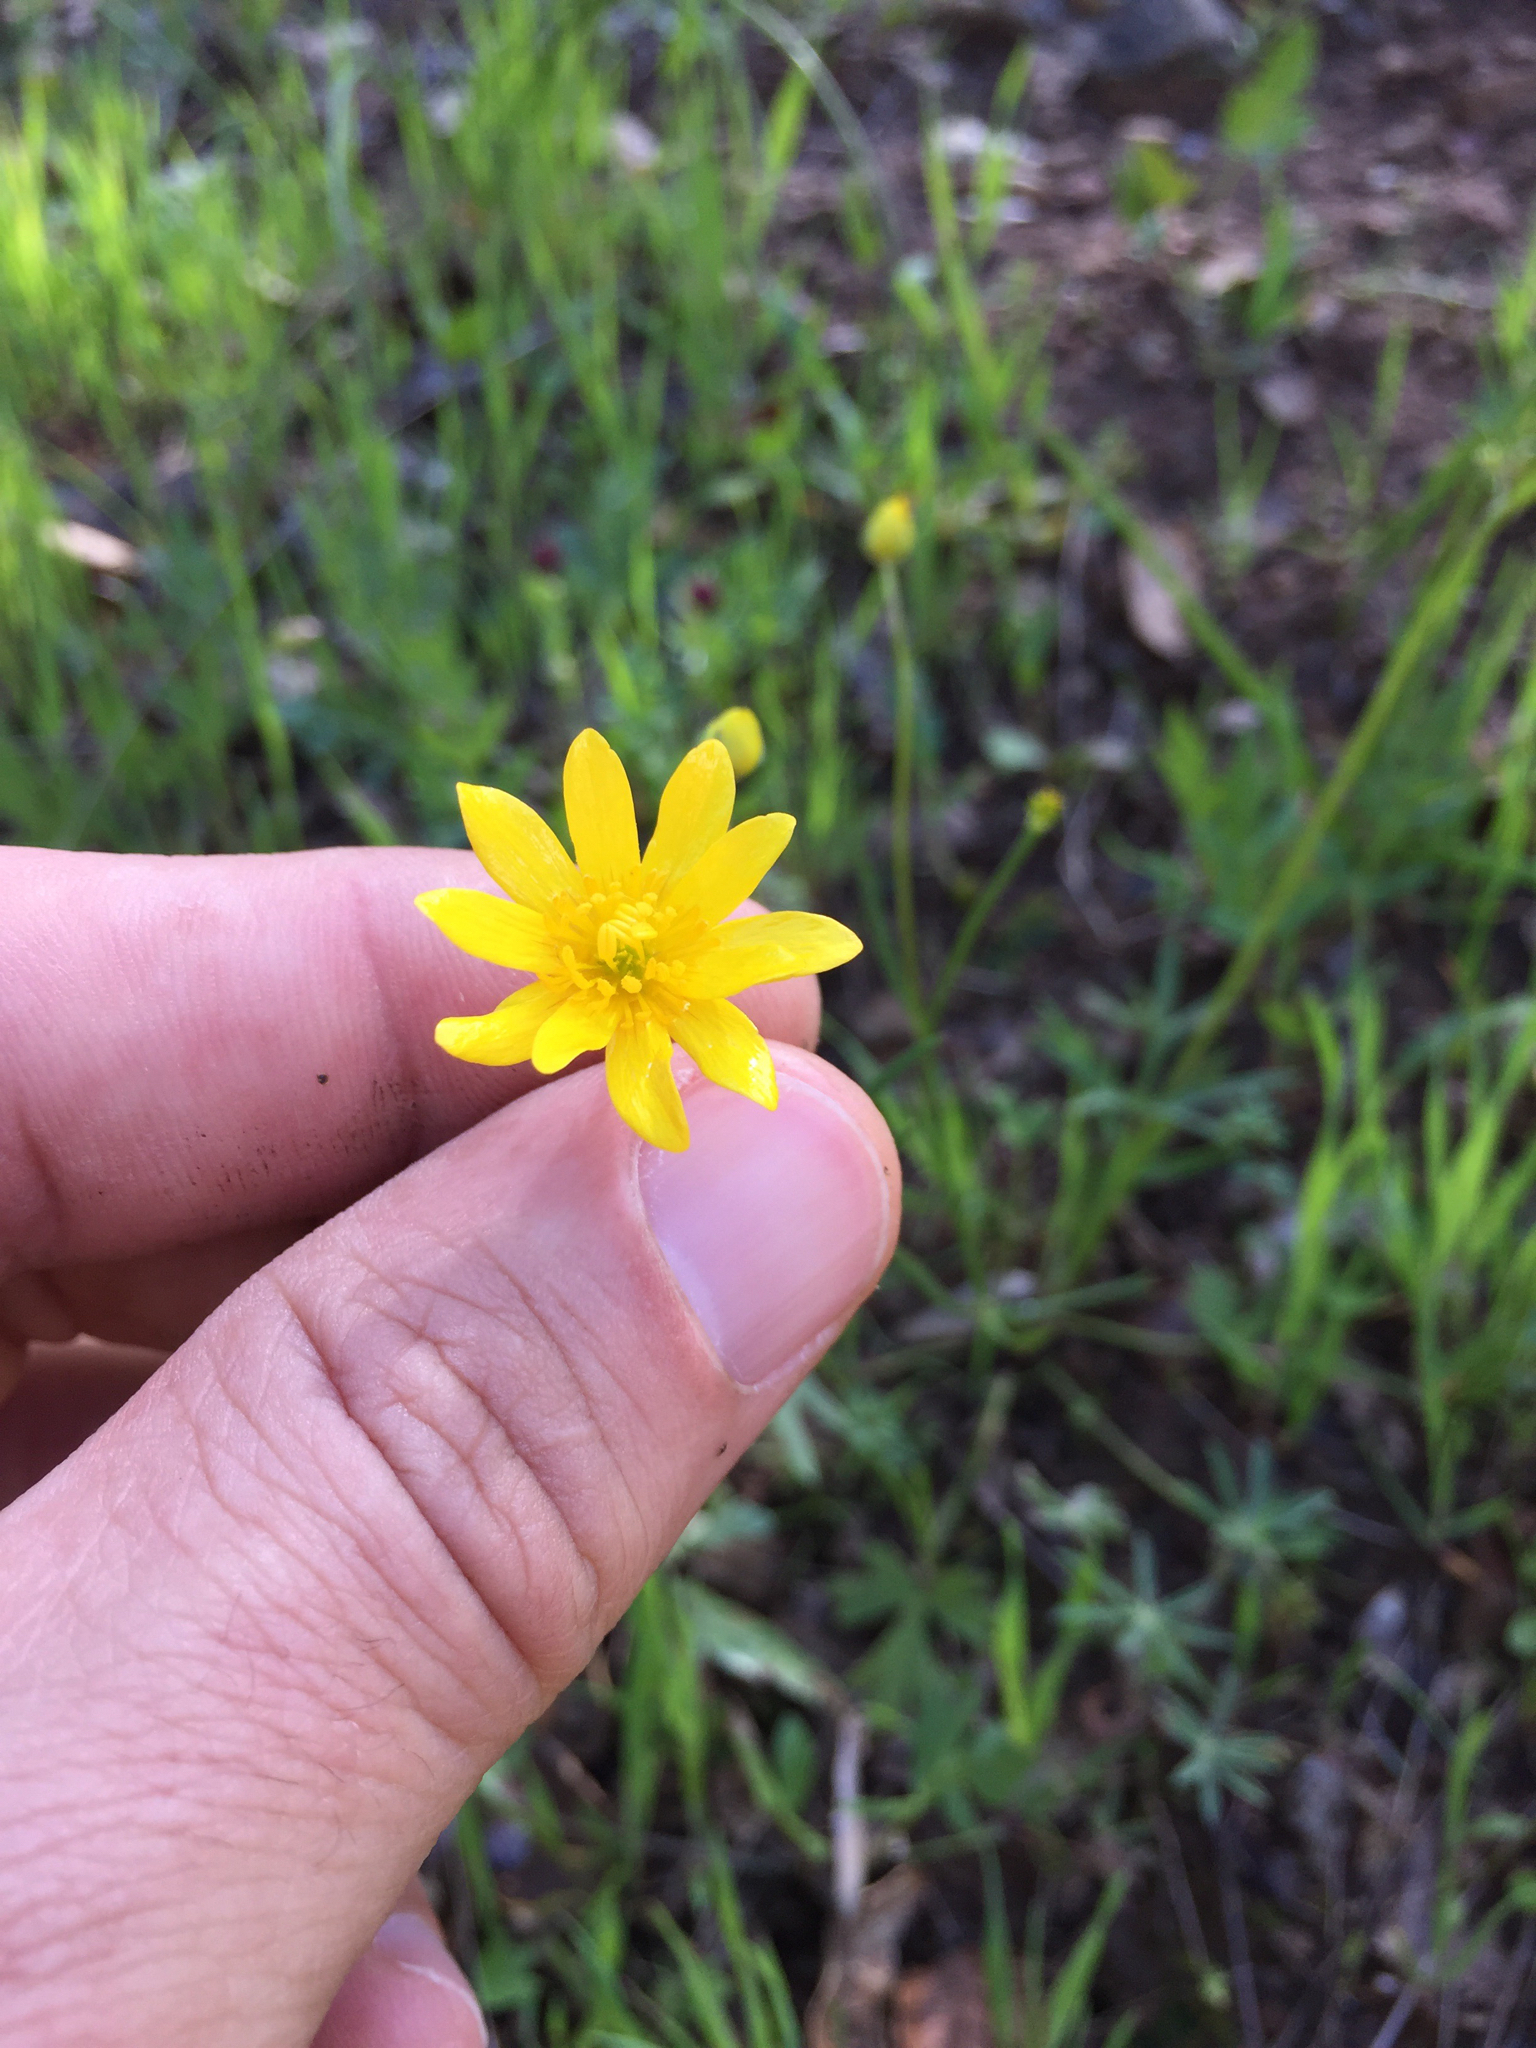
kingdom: Plantae
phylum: Tracheophyta
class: Magnoliopsida
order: Ranunculales
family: Ranunculaceae
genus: Ranunculus
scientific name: Ranunculus californicus
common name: California buttercup
